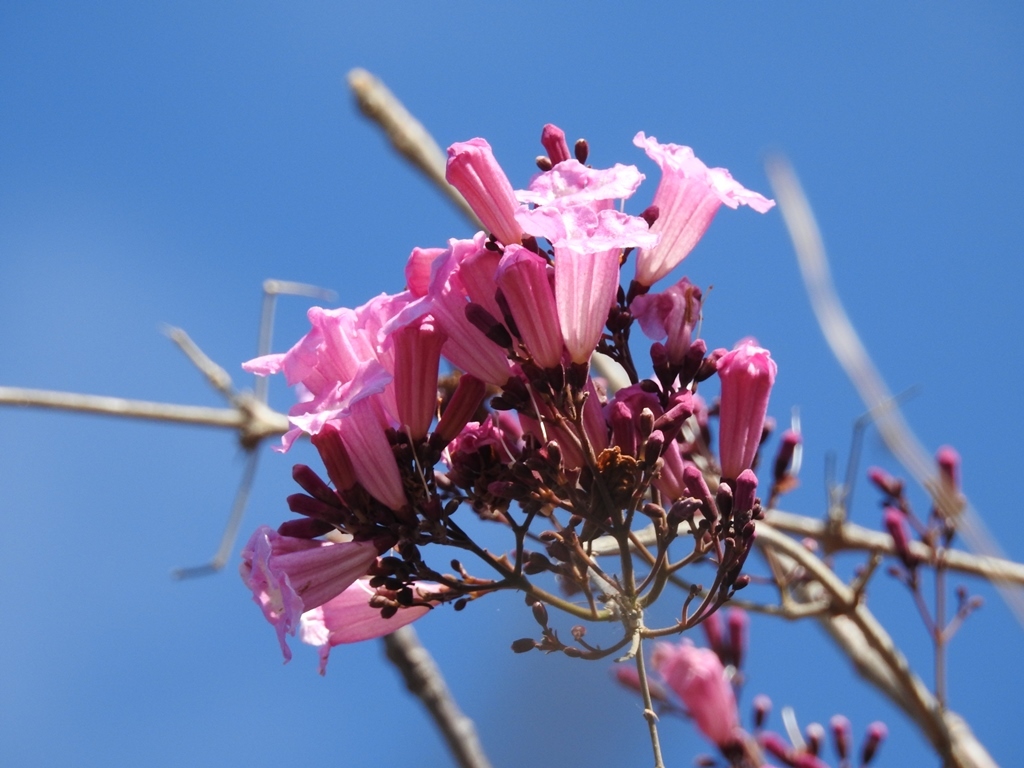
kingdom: Plantae
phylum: Tracheophyta
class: Magnoliopsida
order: Lamiales
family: Bignoniaceae
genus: Handroanthus
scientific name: Handroanthus impetiginosum
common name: Pink trumpet tree
